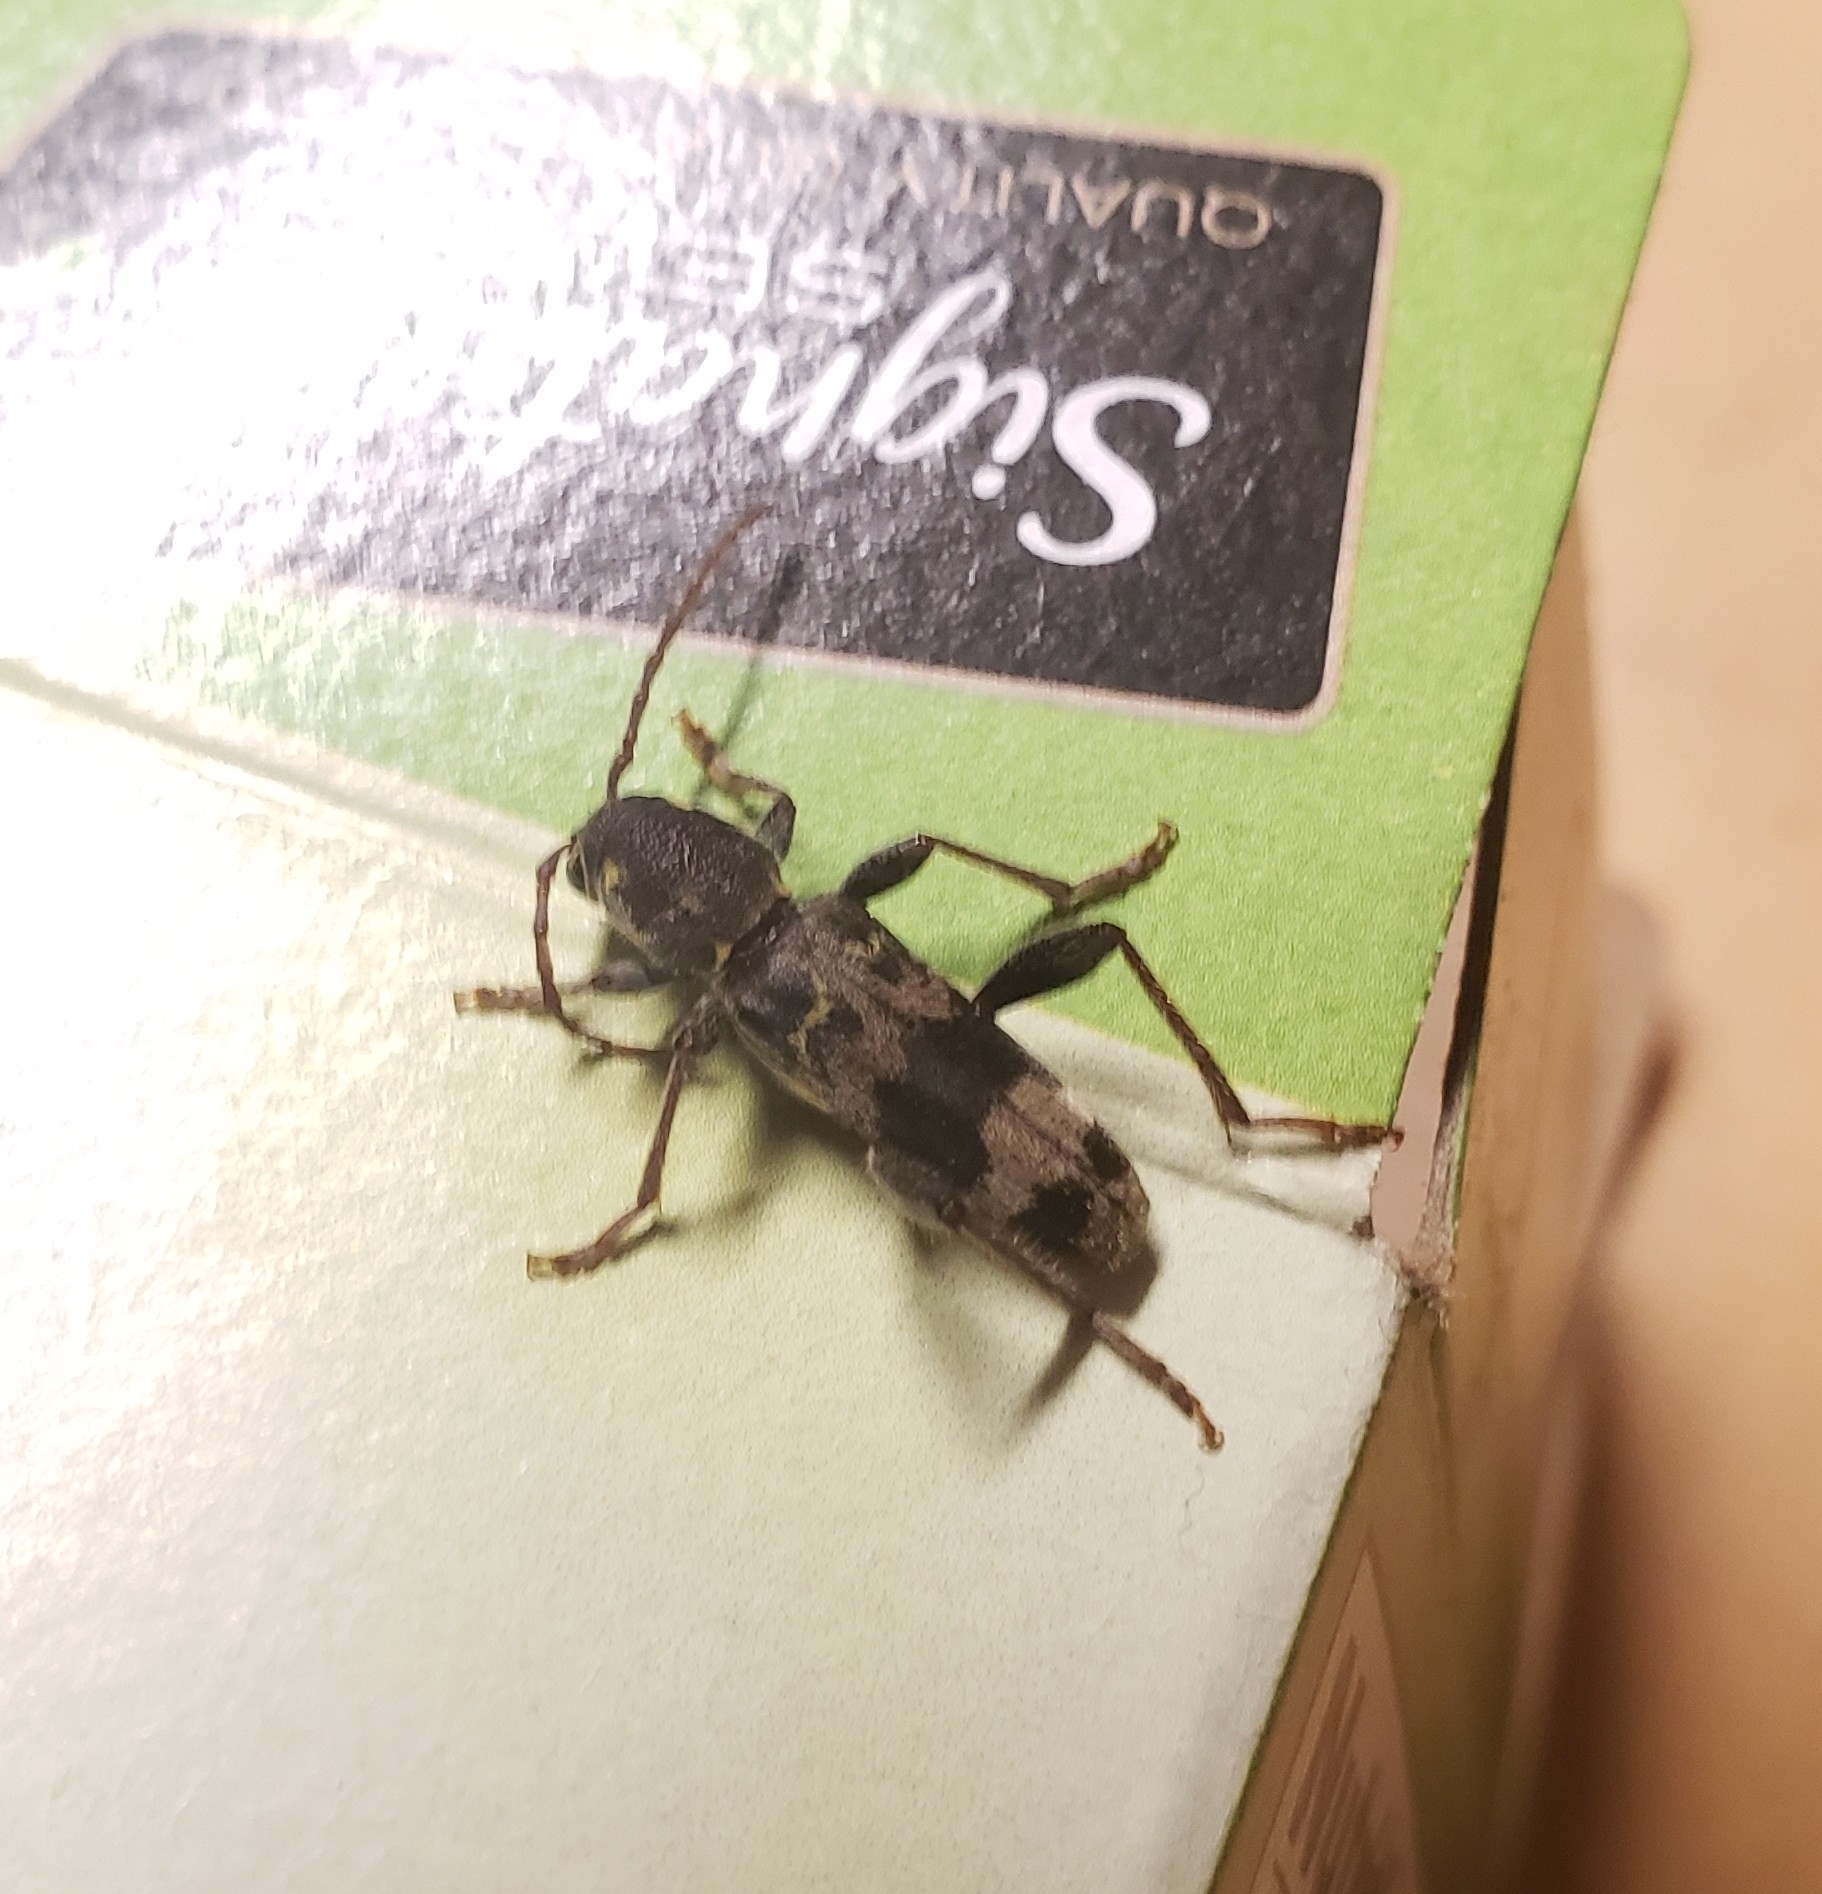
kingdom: Animalia
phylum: Arthropoda
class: Insecta
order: Coleoptera
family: Cerambycidae
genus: Xylotrechus
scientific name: Xylotrechus colonus
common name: Long-horned beetle
